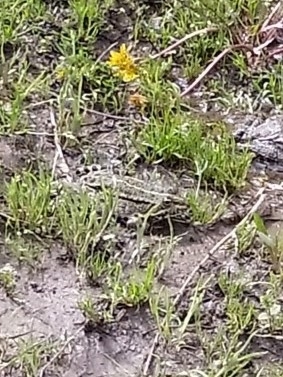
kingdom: Animalia
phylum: Chordata
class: Amphibia
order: Anura
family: Ranidae
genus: Pelophylax
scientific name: Pelophylax ridibundus
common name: Marsh frog
